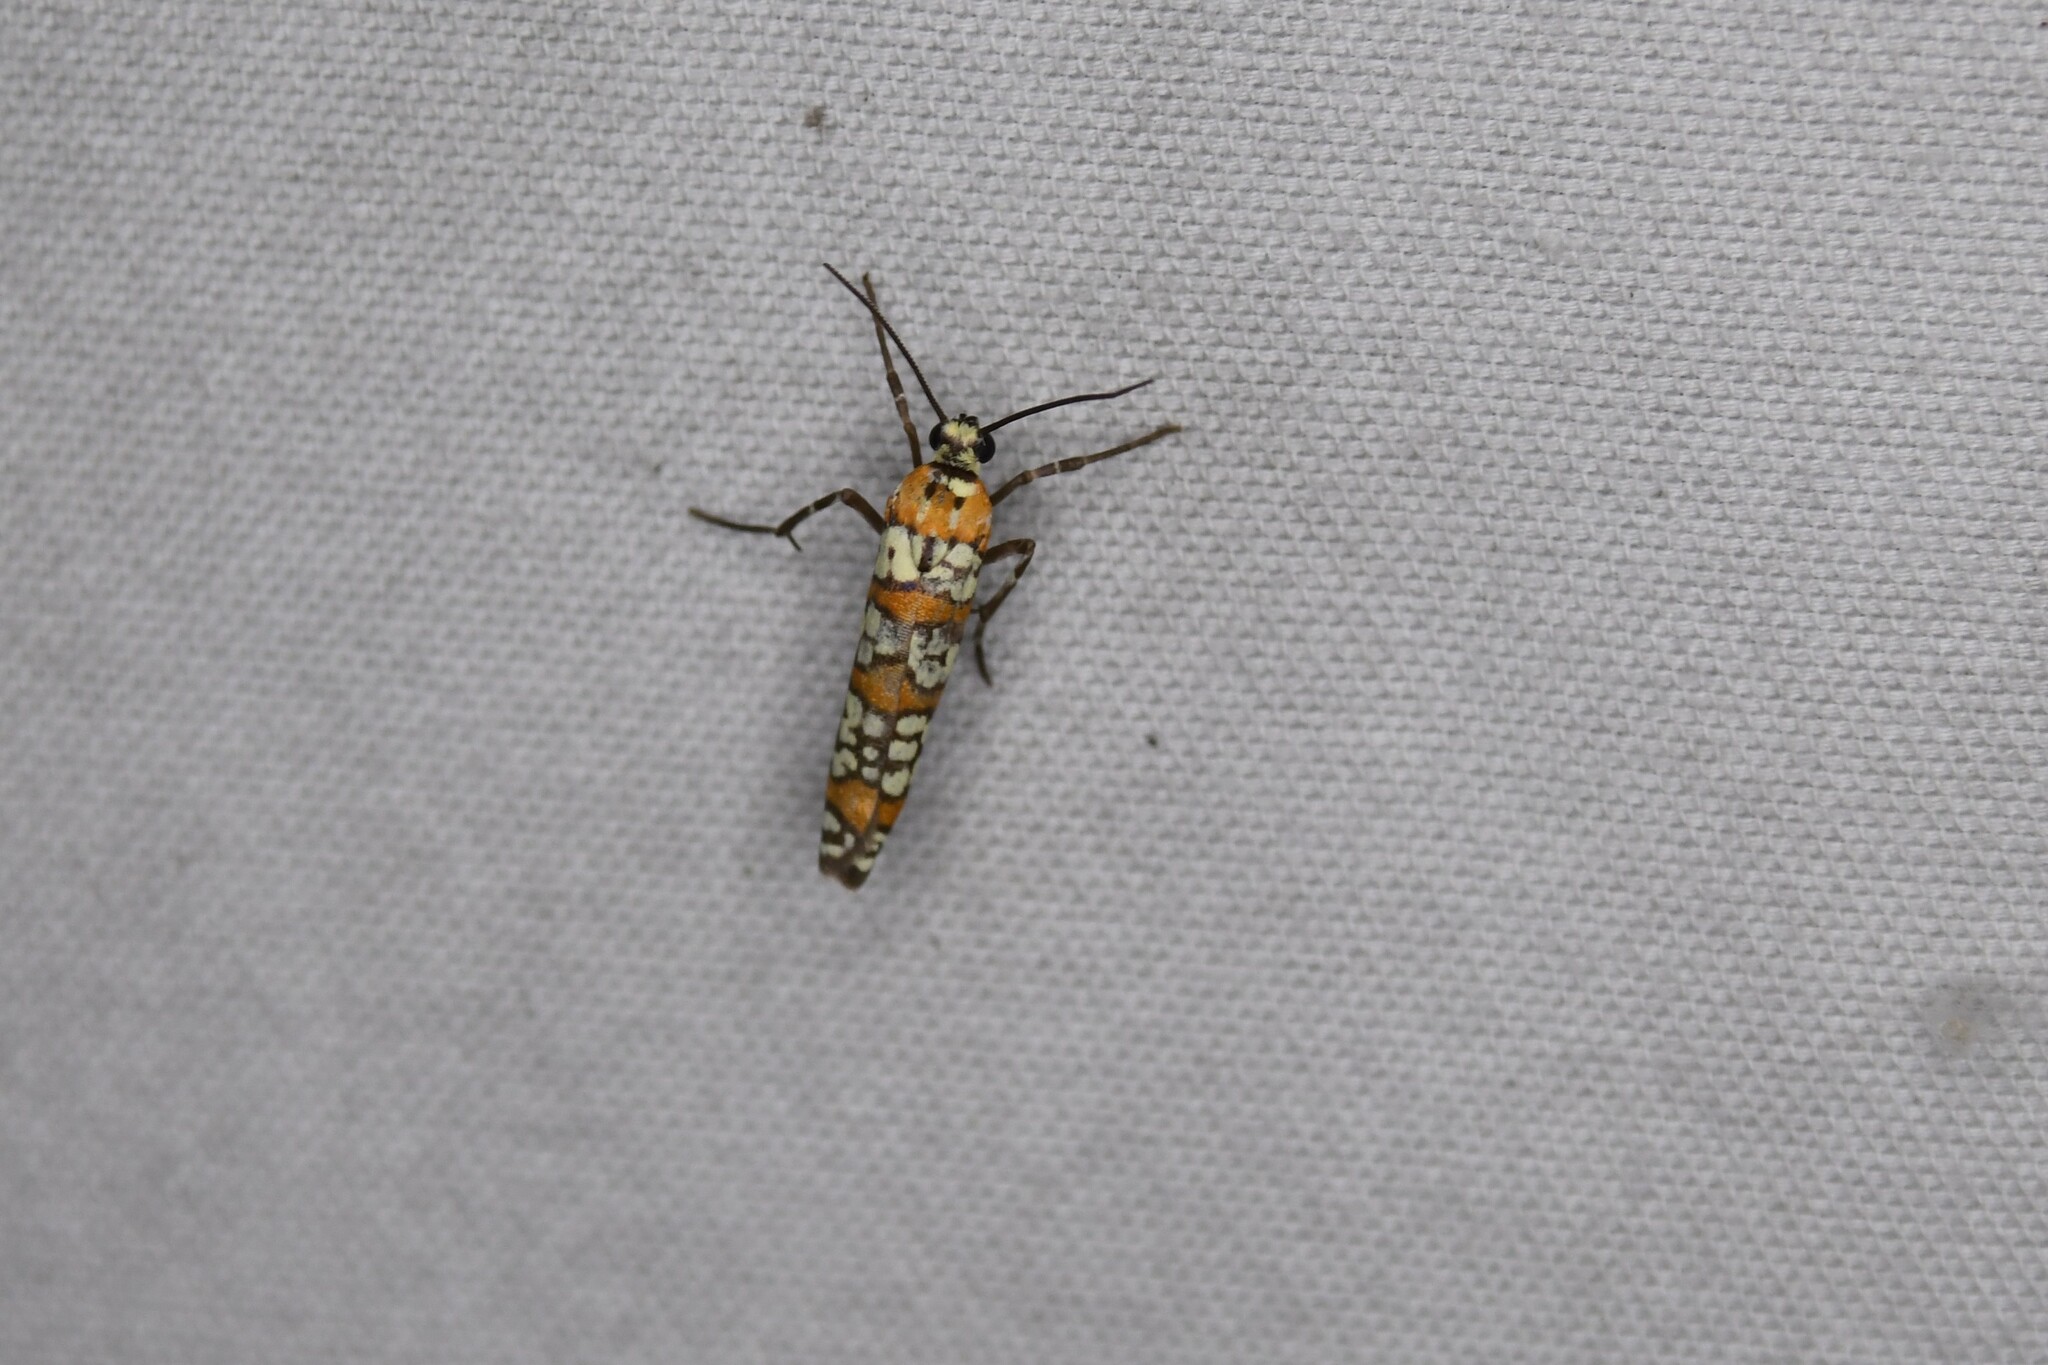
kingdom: Animalia
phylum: Arthropoda
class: Insecta
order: Lepidoptera
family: Attevidae
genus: Atteva
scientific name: Atteva punctella
